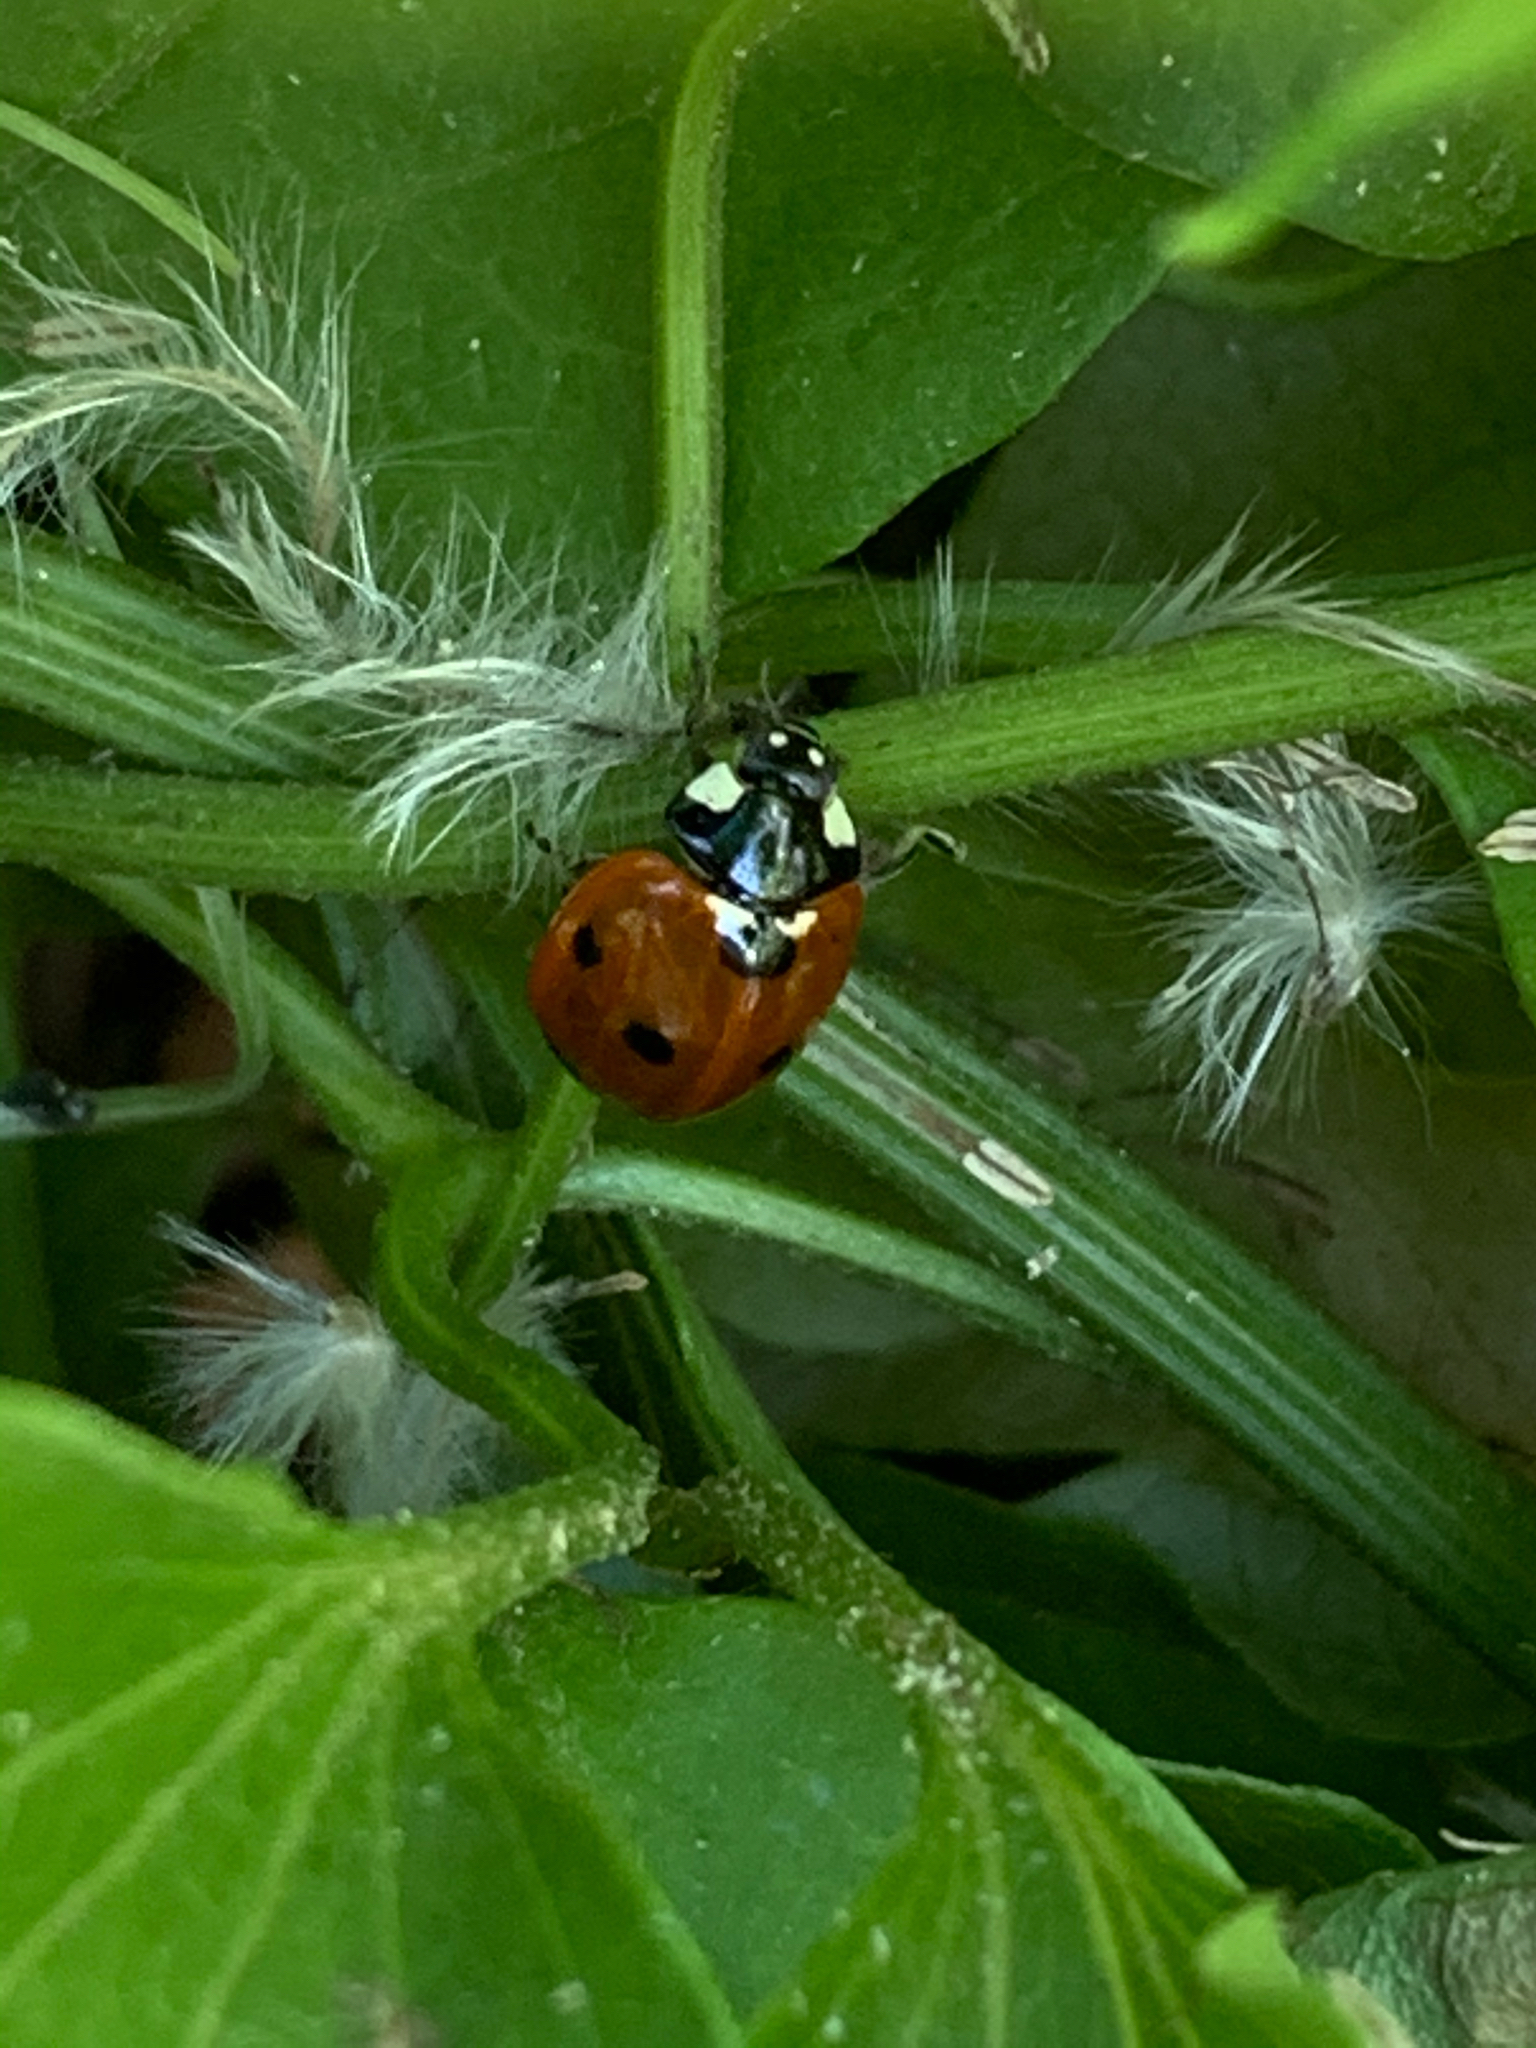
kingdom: Animalia
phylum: Arthropoda
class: Insecta
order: Coleoptera
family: Coccinellidae
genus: Coccinella
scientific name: Coccinella septempunctata
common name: Sevenspotted lady beetle
